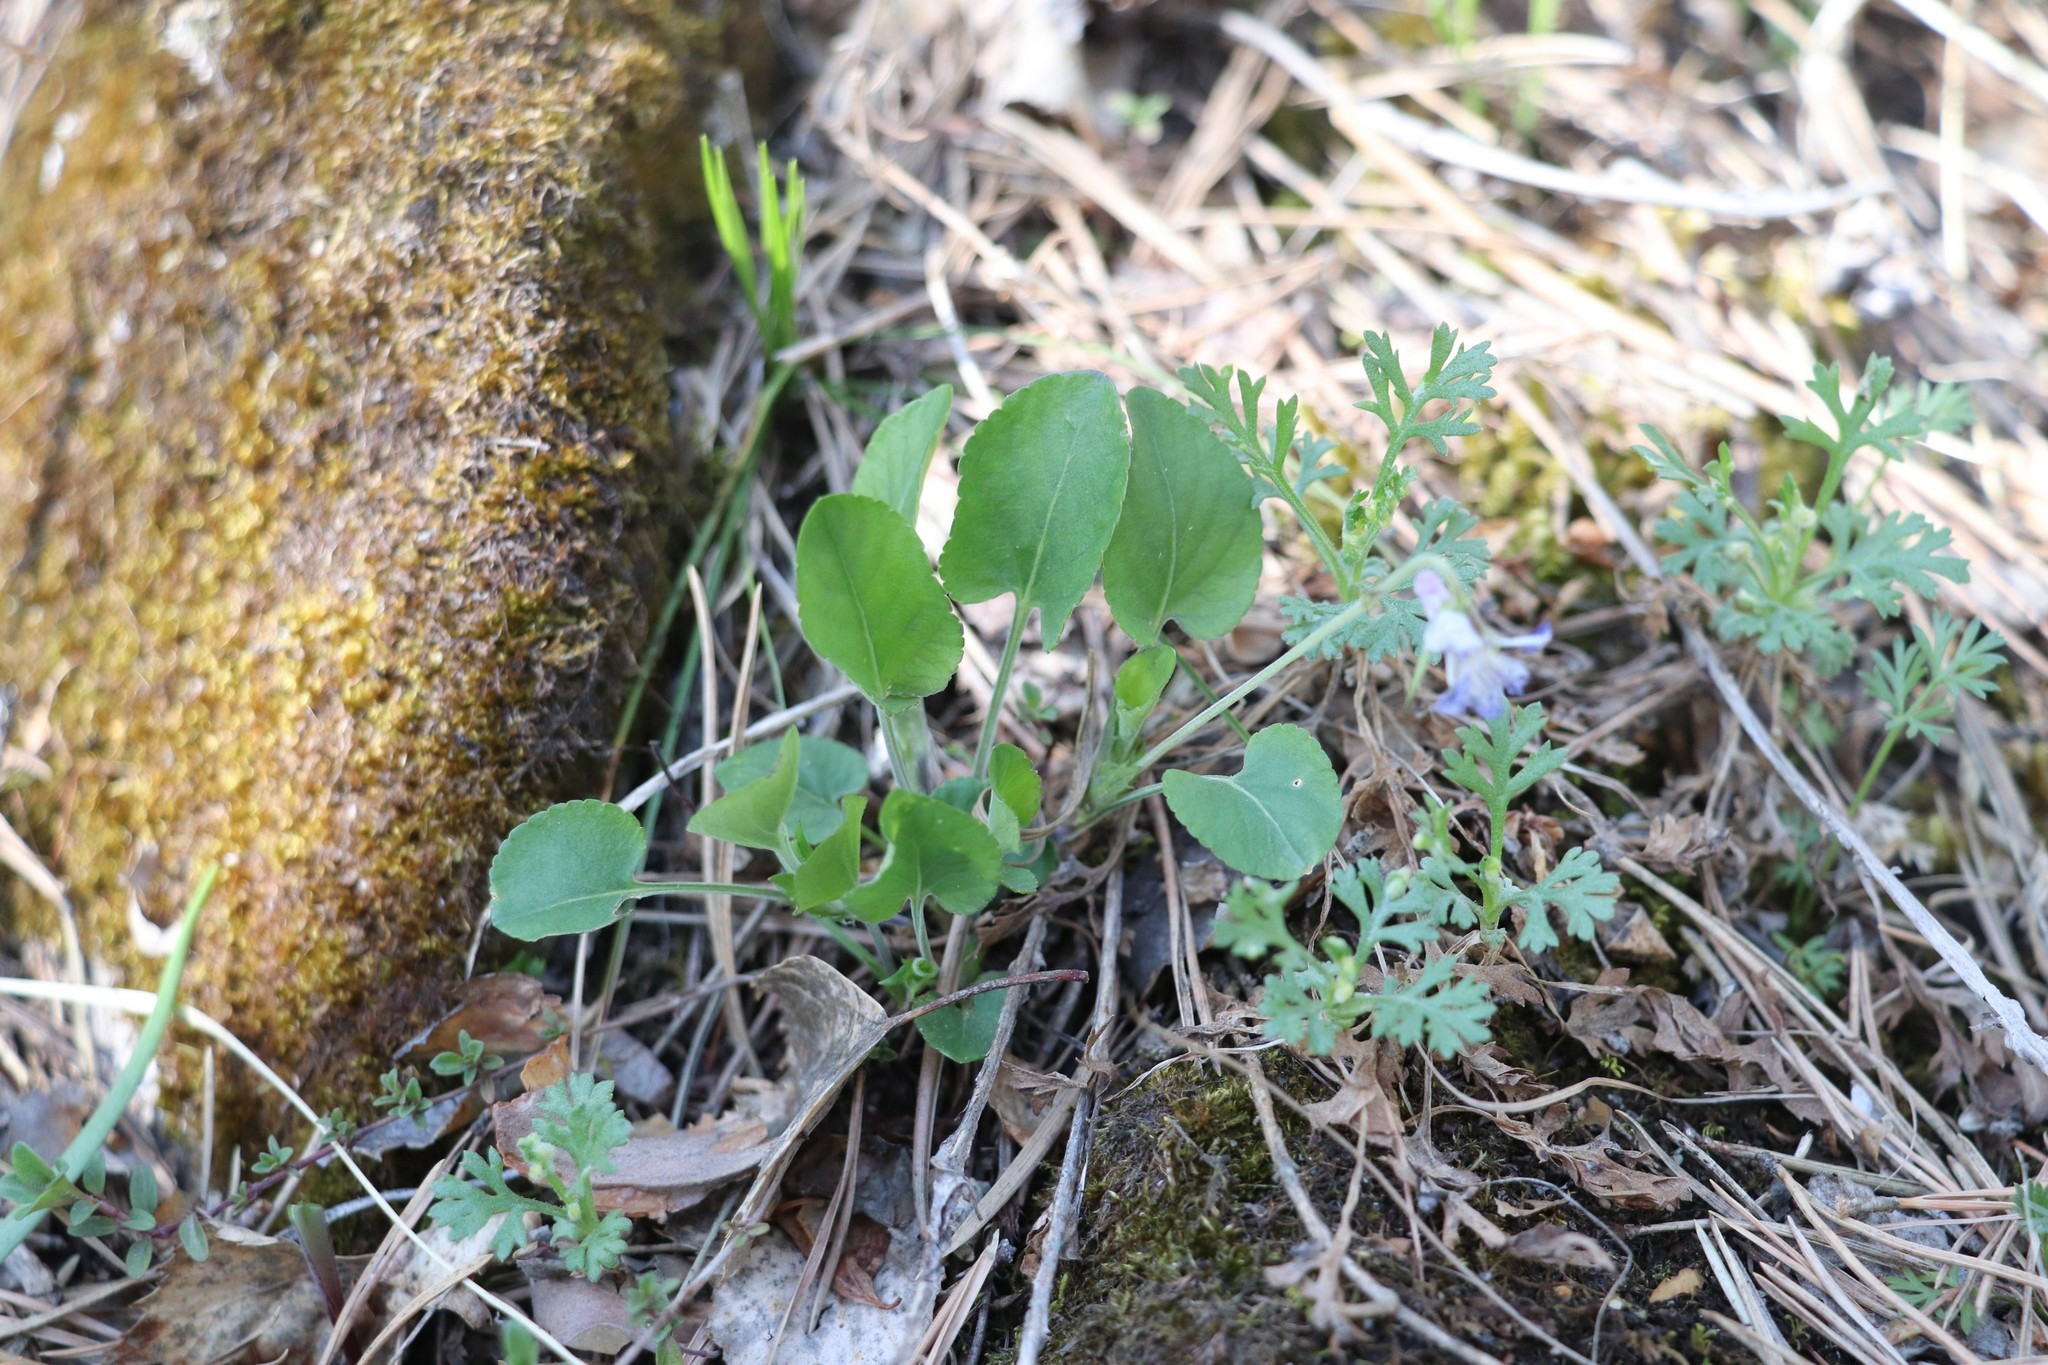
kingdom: Plantae
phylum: Tracheophyta
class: Magnoliopsida
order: Malpighiales
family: Violaceae
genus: Viola
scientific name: Viola rupestris
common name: Teesdale violet
